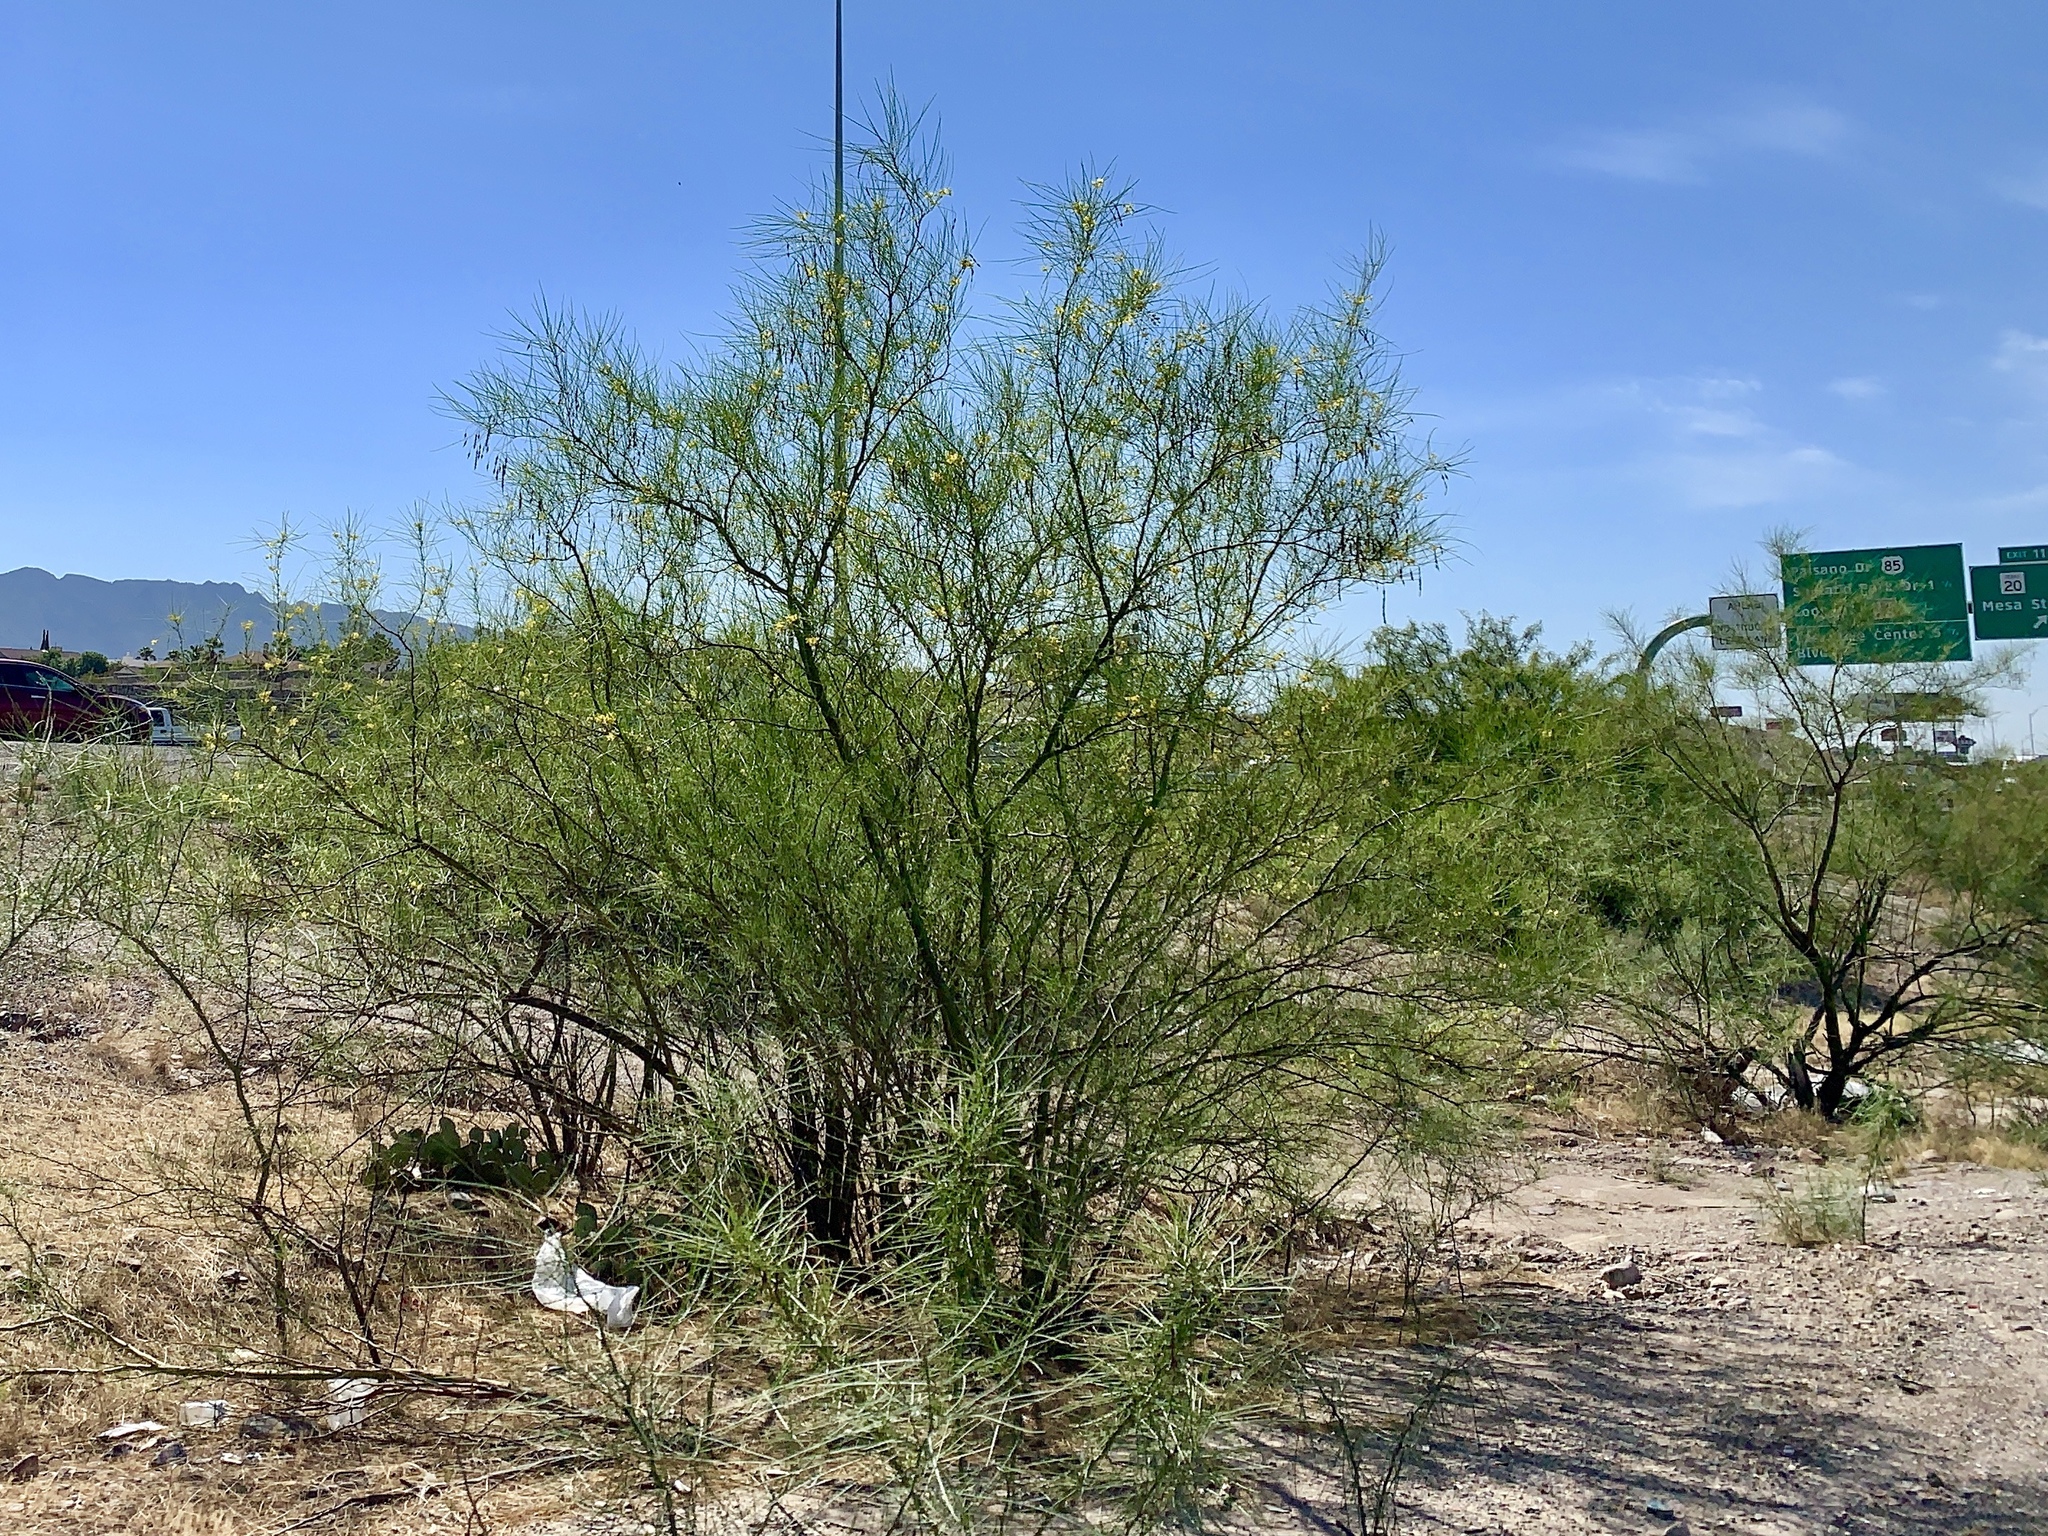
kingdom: Plantae
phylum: Tracheophyta
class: Magnoliopsida
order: Fabales
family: Fabaceae
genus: Parkinsonia
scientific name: Parkinsonia aculeata
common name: Jerusalem thorn
